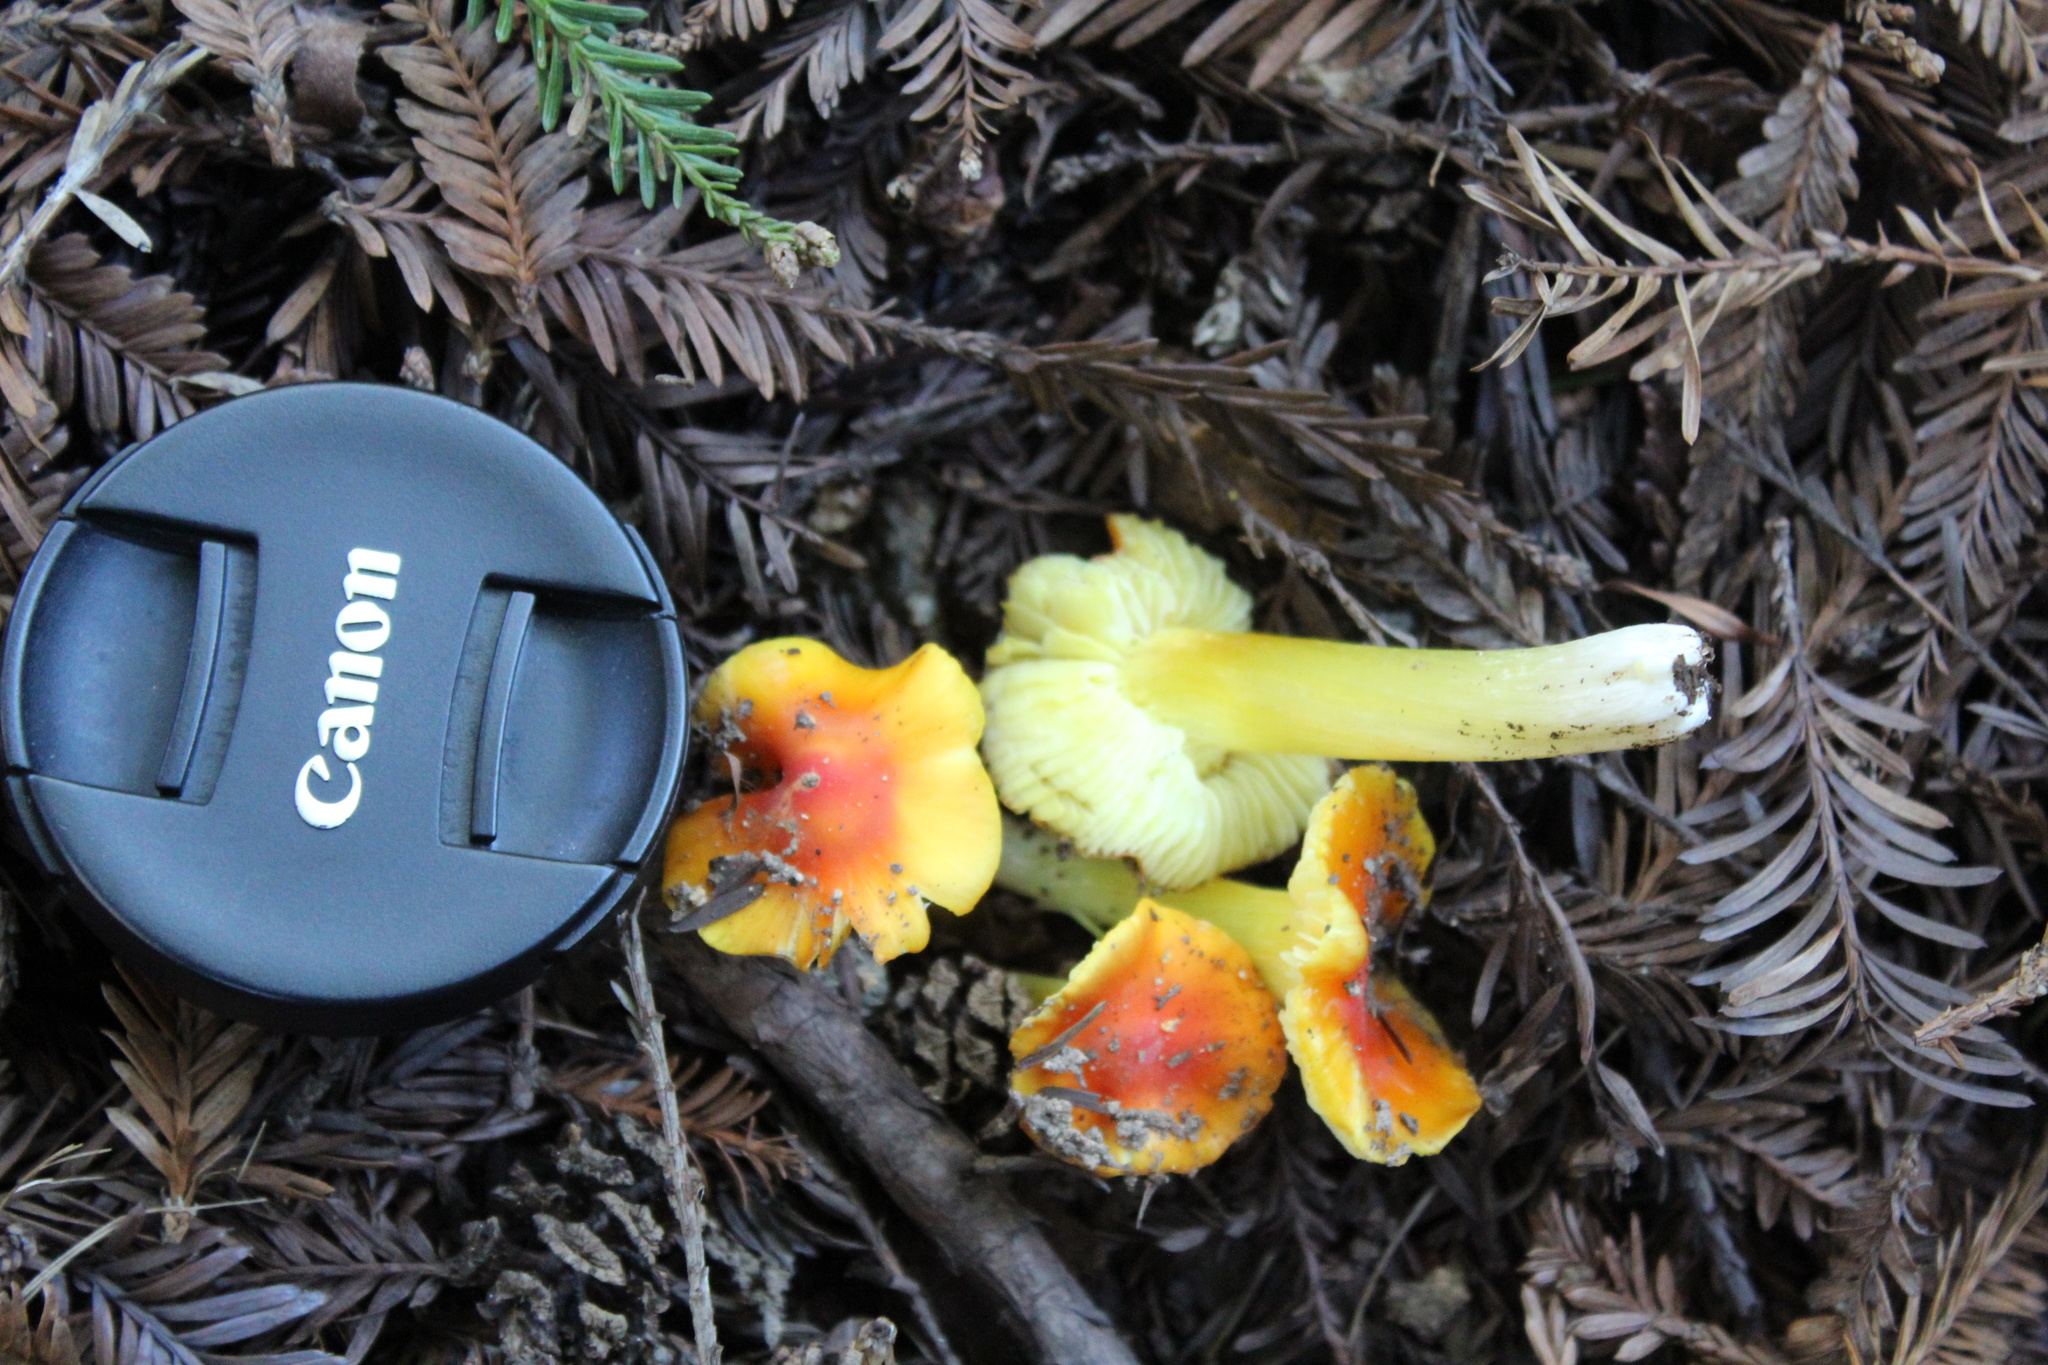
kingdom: Fungi
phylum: Basidiomycota
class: Agaricomycetes
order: Agaricales
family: Hygrophoraceae
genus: Hygrocybe
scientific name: Hygrocybe acutoconica
